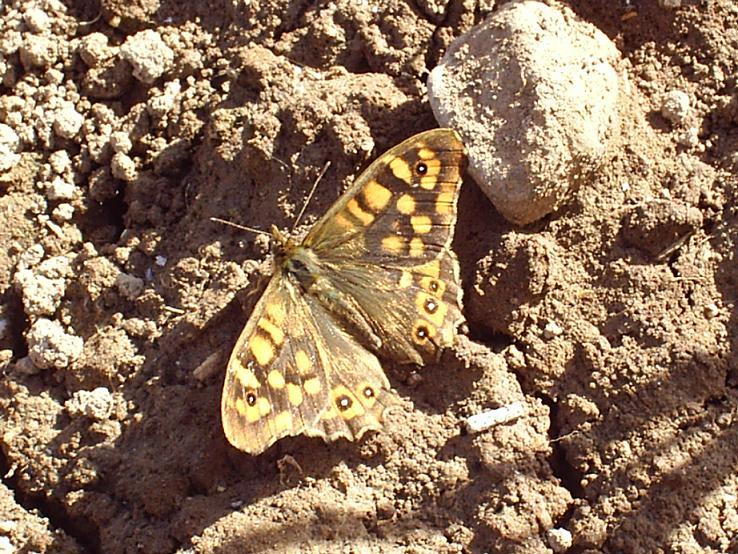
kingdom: Animalia
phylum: Arthropoda
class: Insecta
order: Lepidoptera
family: Nymphalidae
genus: Pararge
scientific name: Pararge aegeria
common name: Speckled wood
